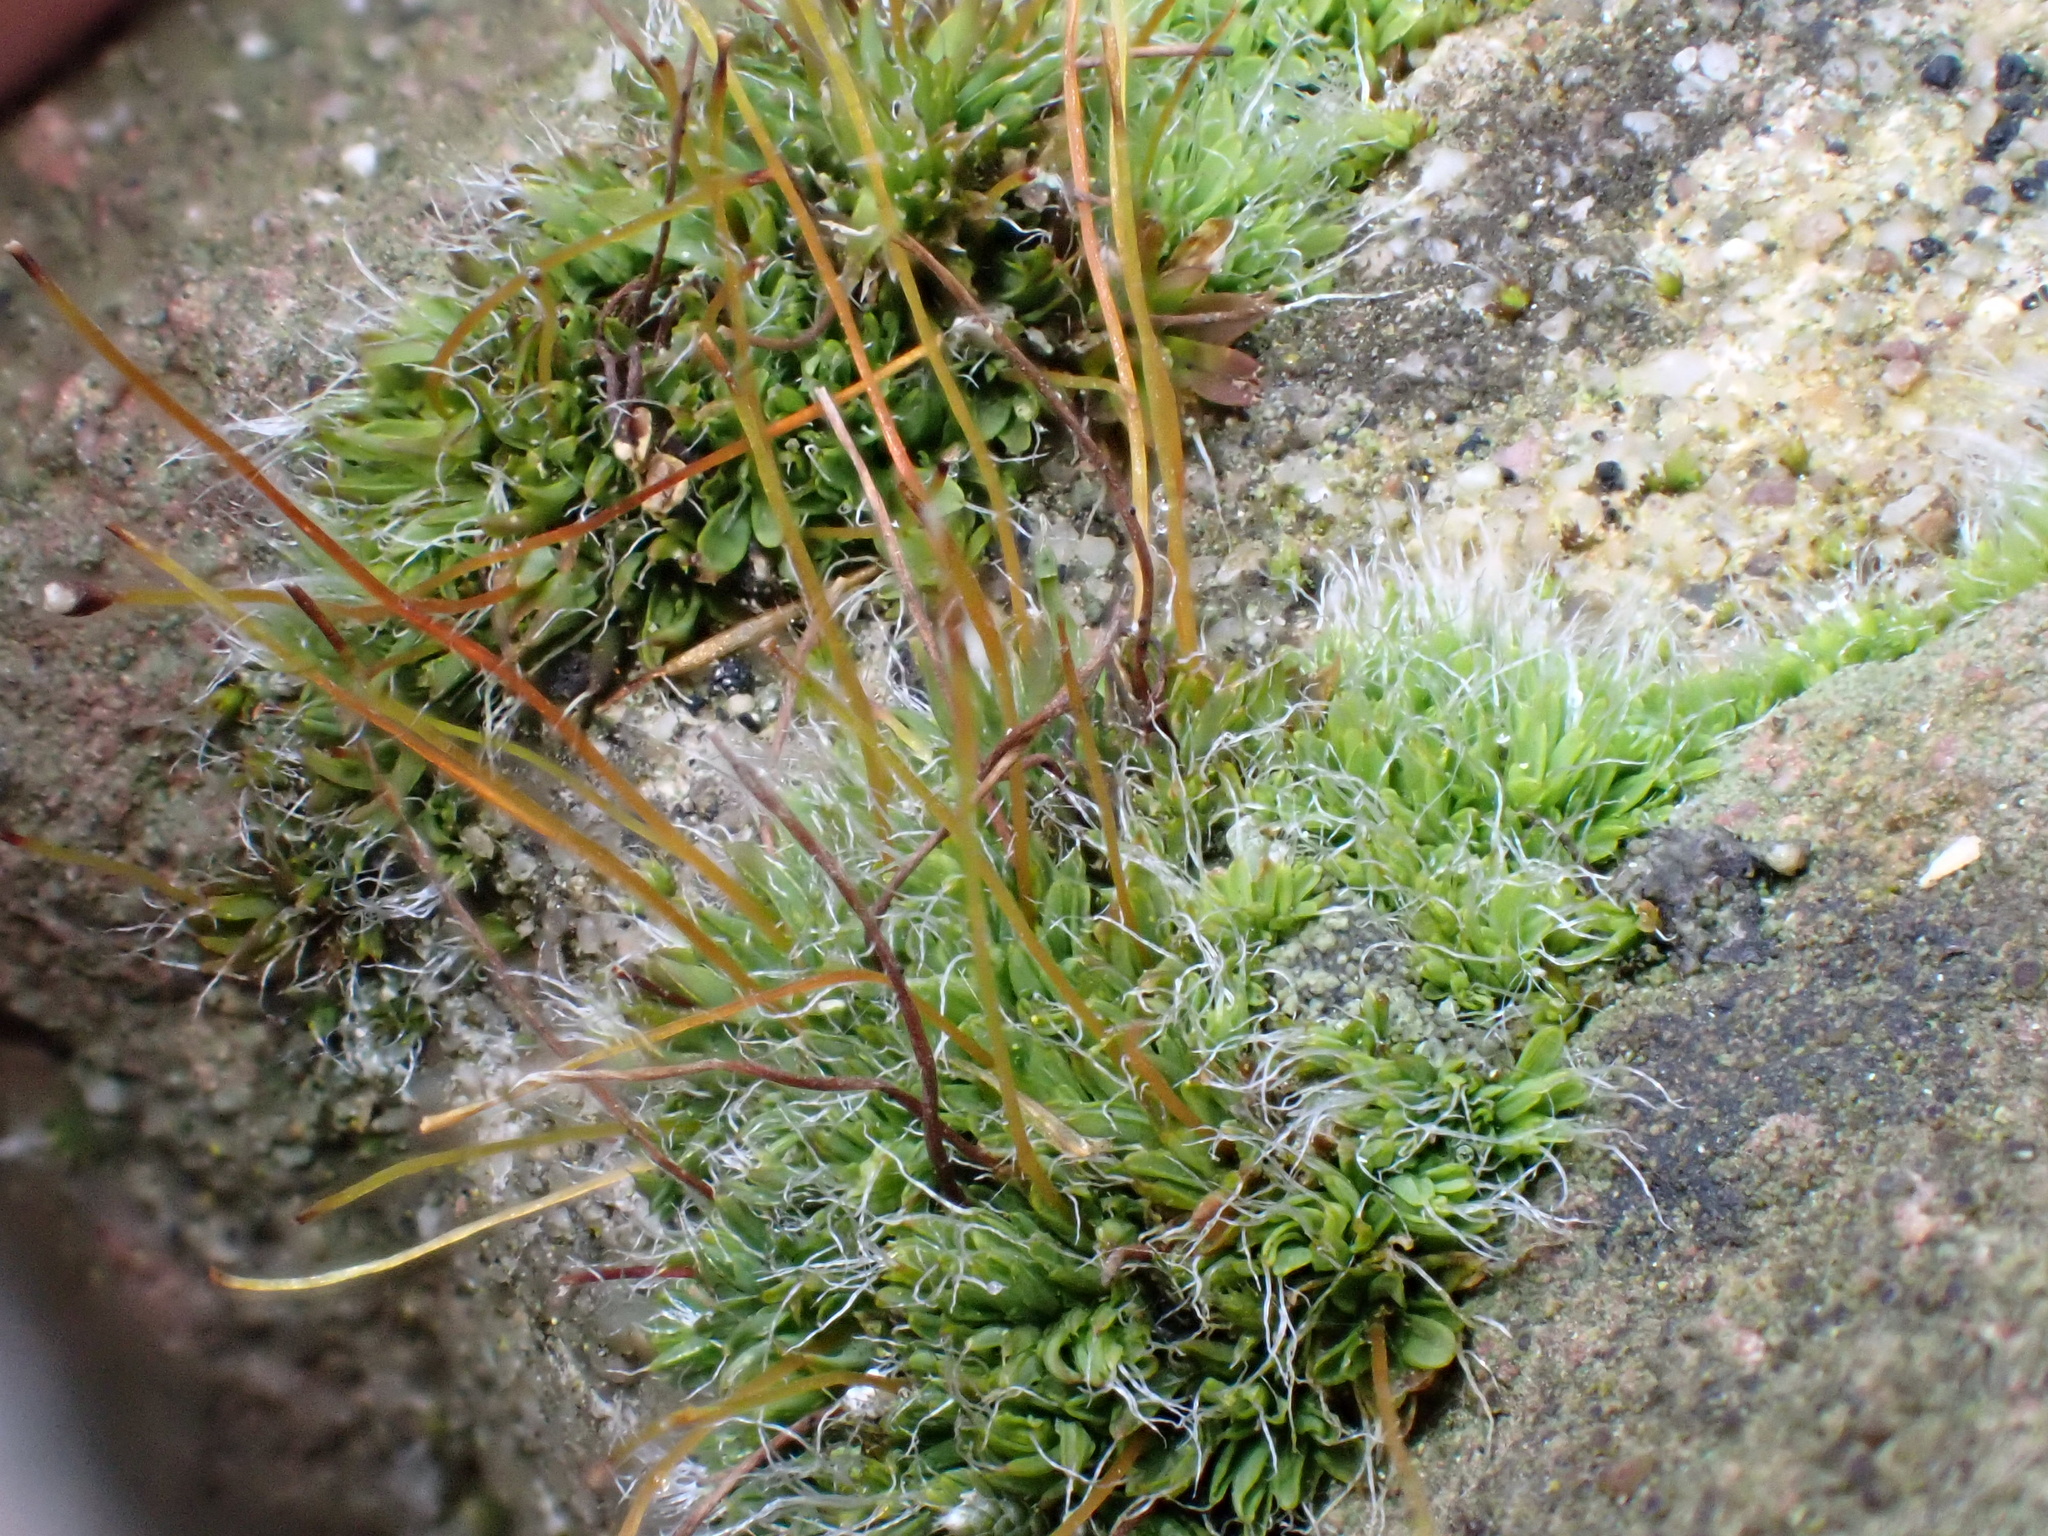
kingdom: Plantae
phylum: Bryophyta
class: Bryopsida
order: Pottiales
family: Pottiaceae
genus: Tortula
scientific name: Tortula muralis
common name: Wall screw-moss
